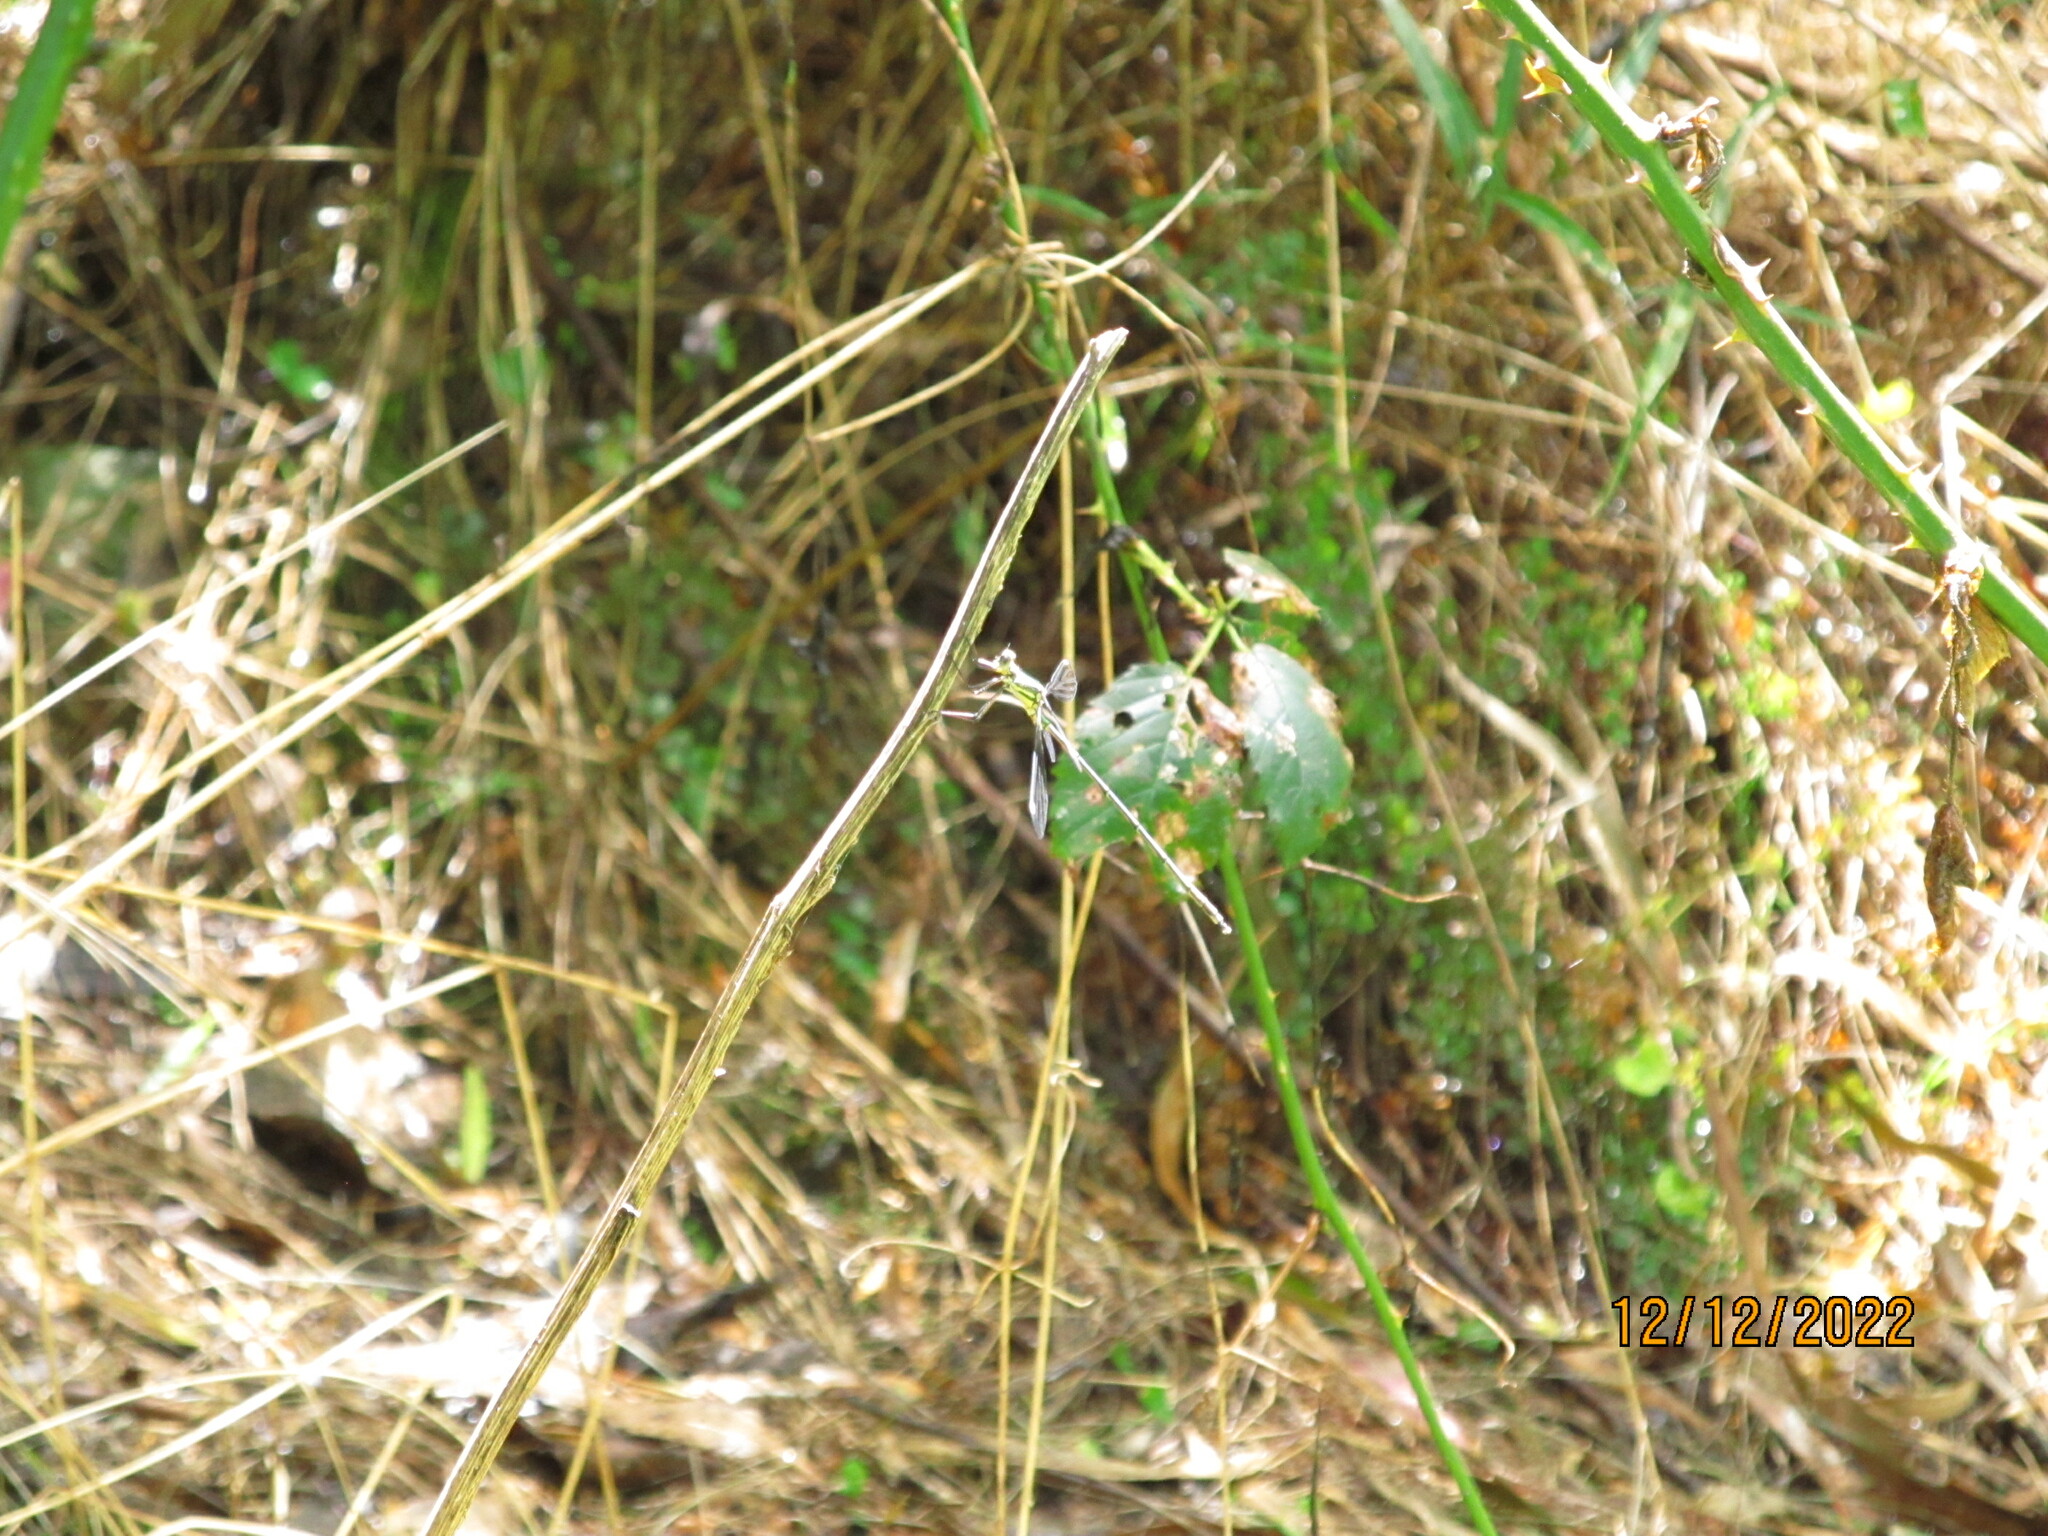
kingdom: Animalia
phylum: Arthropoda
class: Insecta
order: Odonata
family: Synlestidae
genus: Synlestes
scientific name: Synlestes weyersii
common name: Bronze needle
